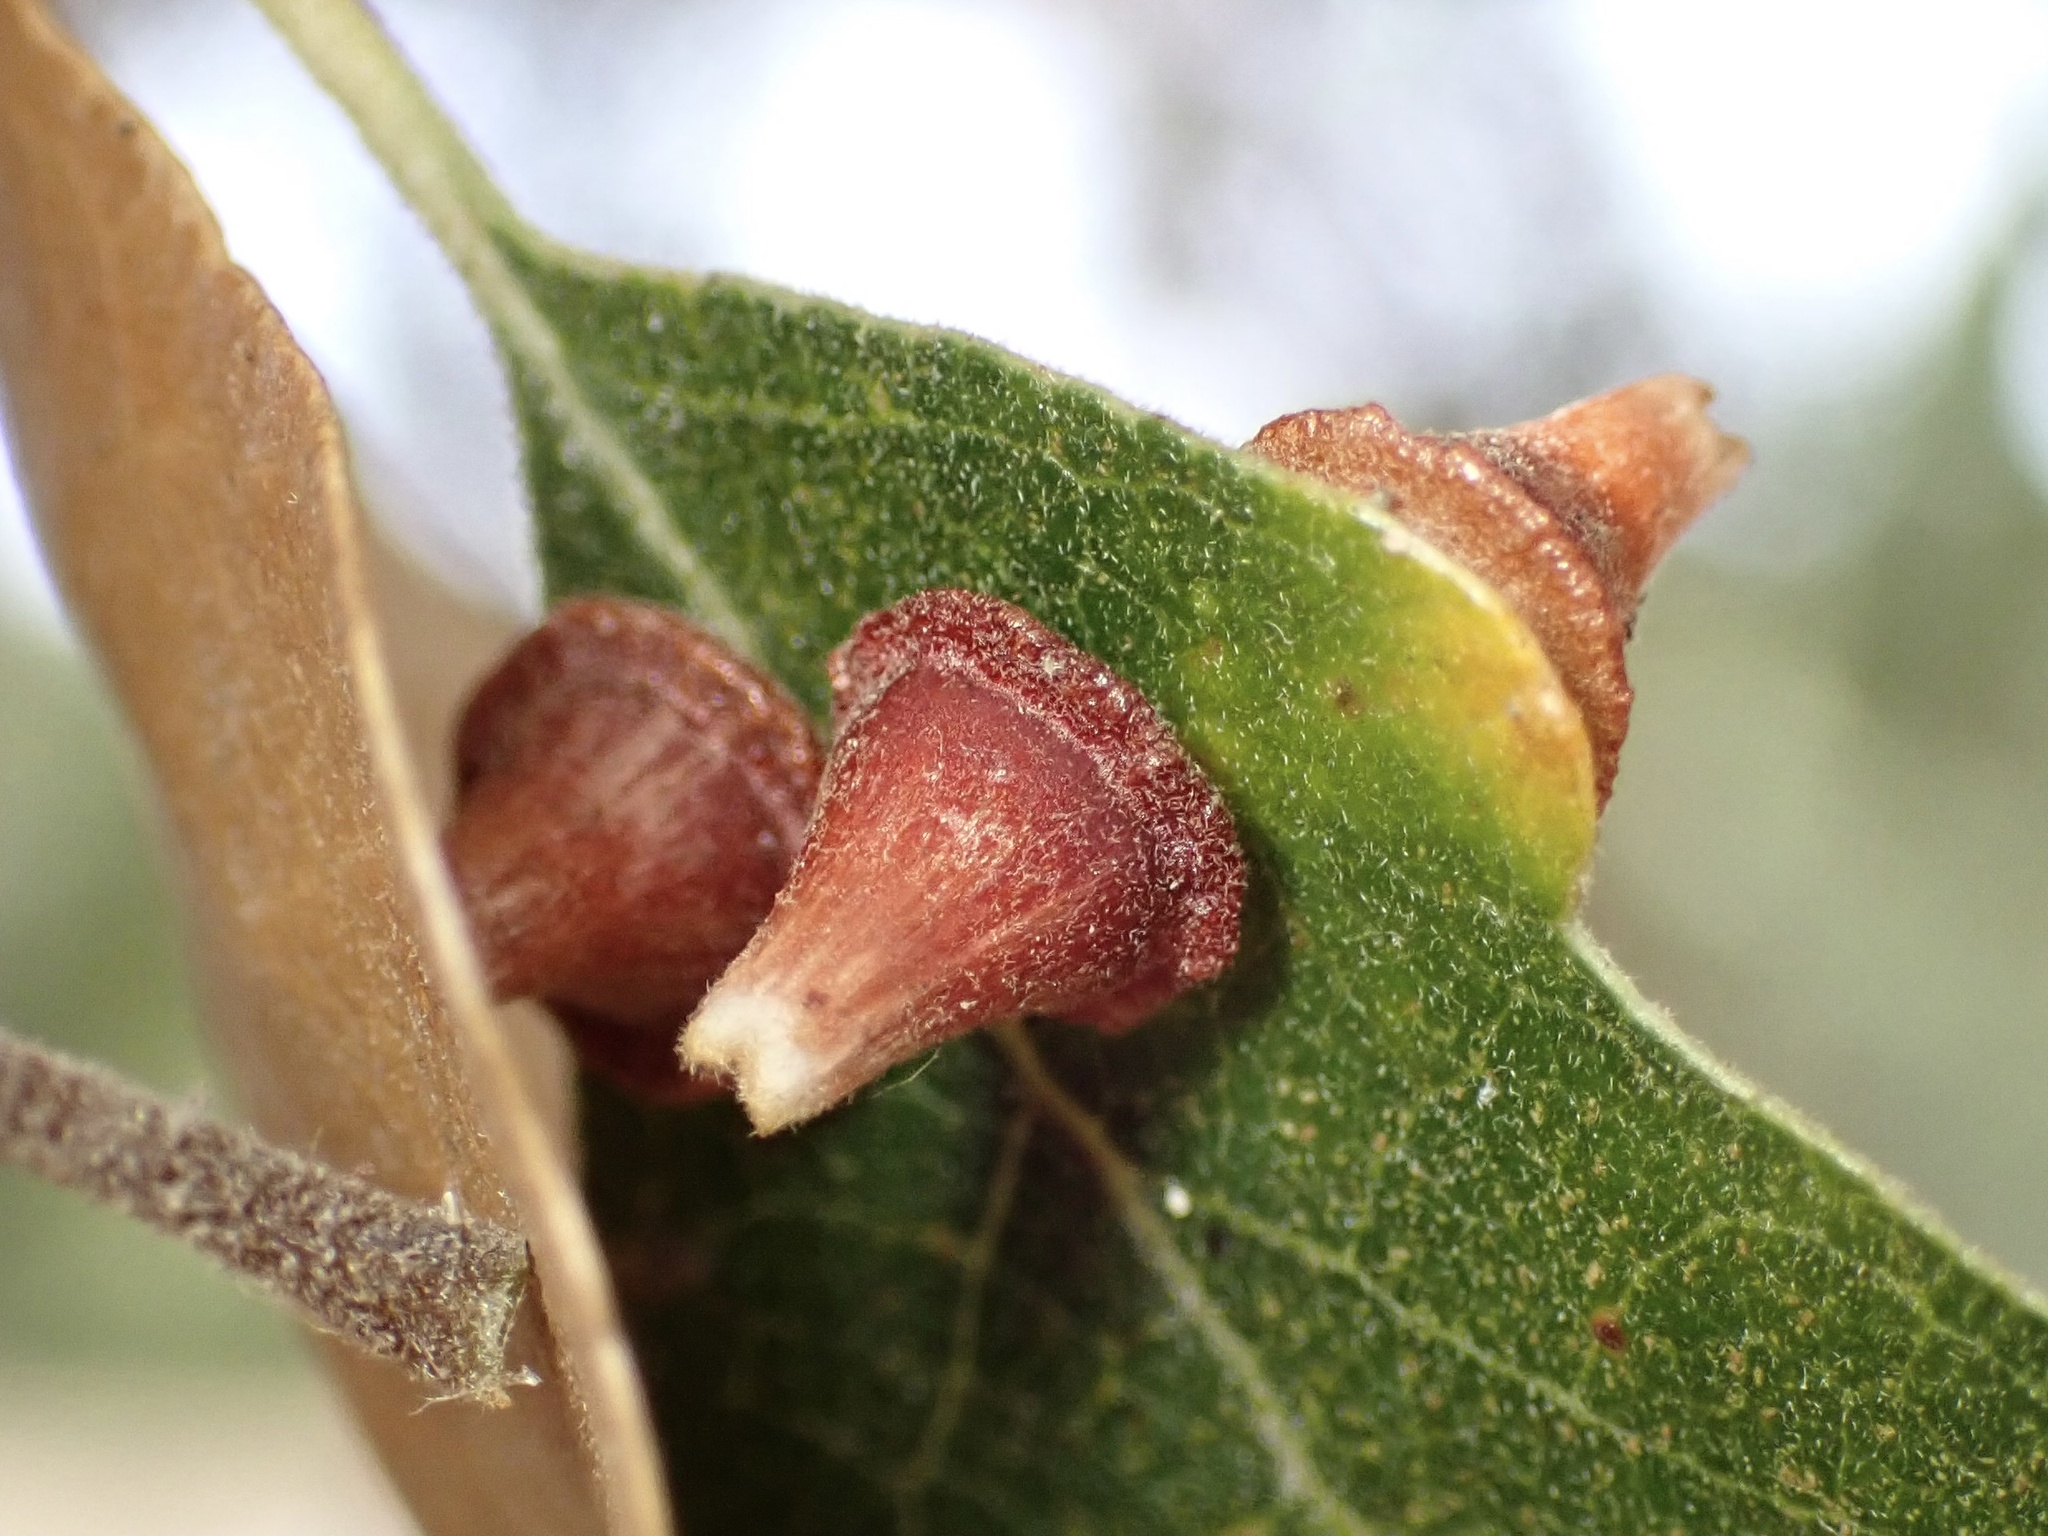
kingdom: Animalia
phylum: Arthropoda
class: Insecta
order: Hymenoptera
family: Cynipidae
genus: Andricus
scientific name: Andricus
